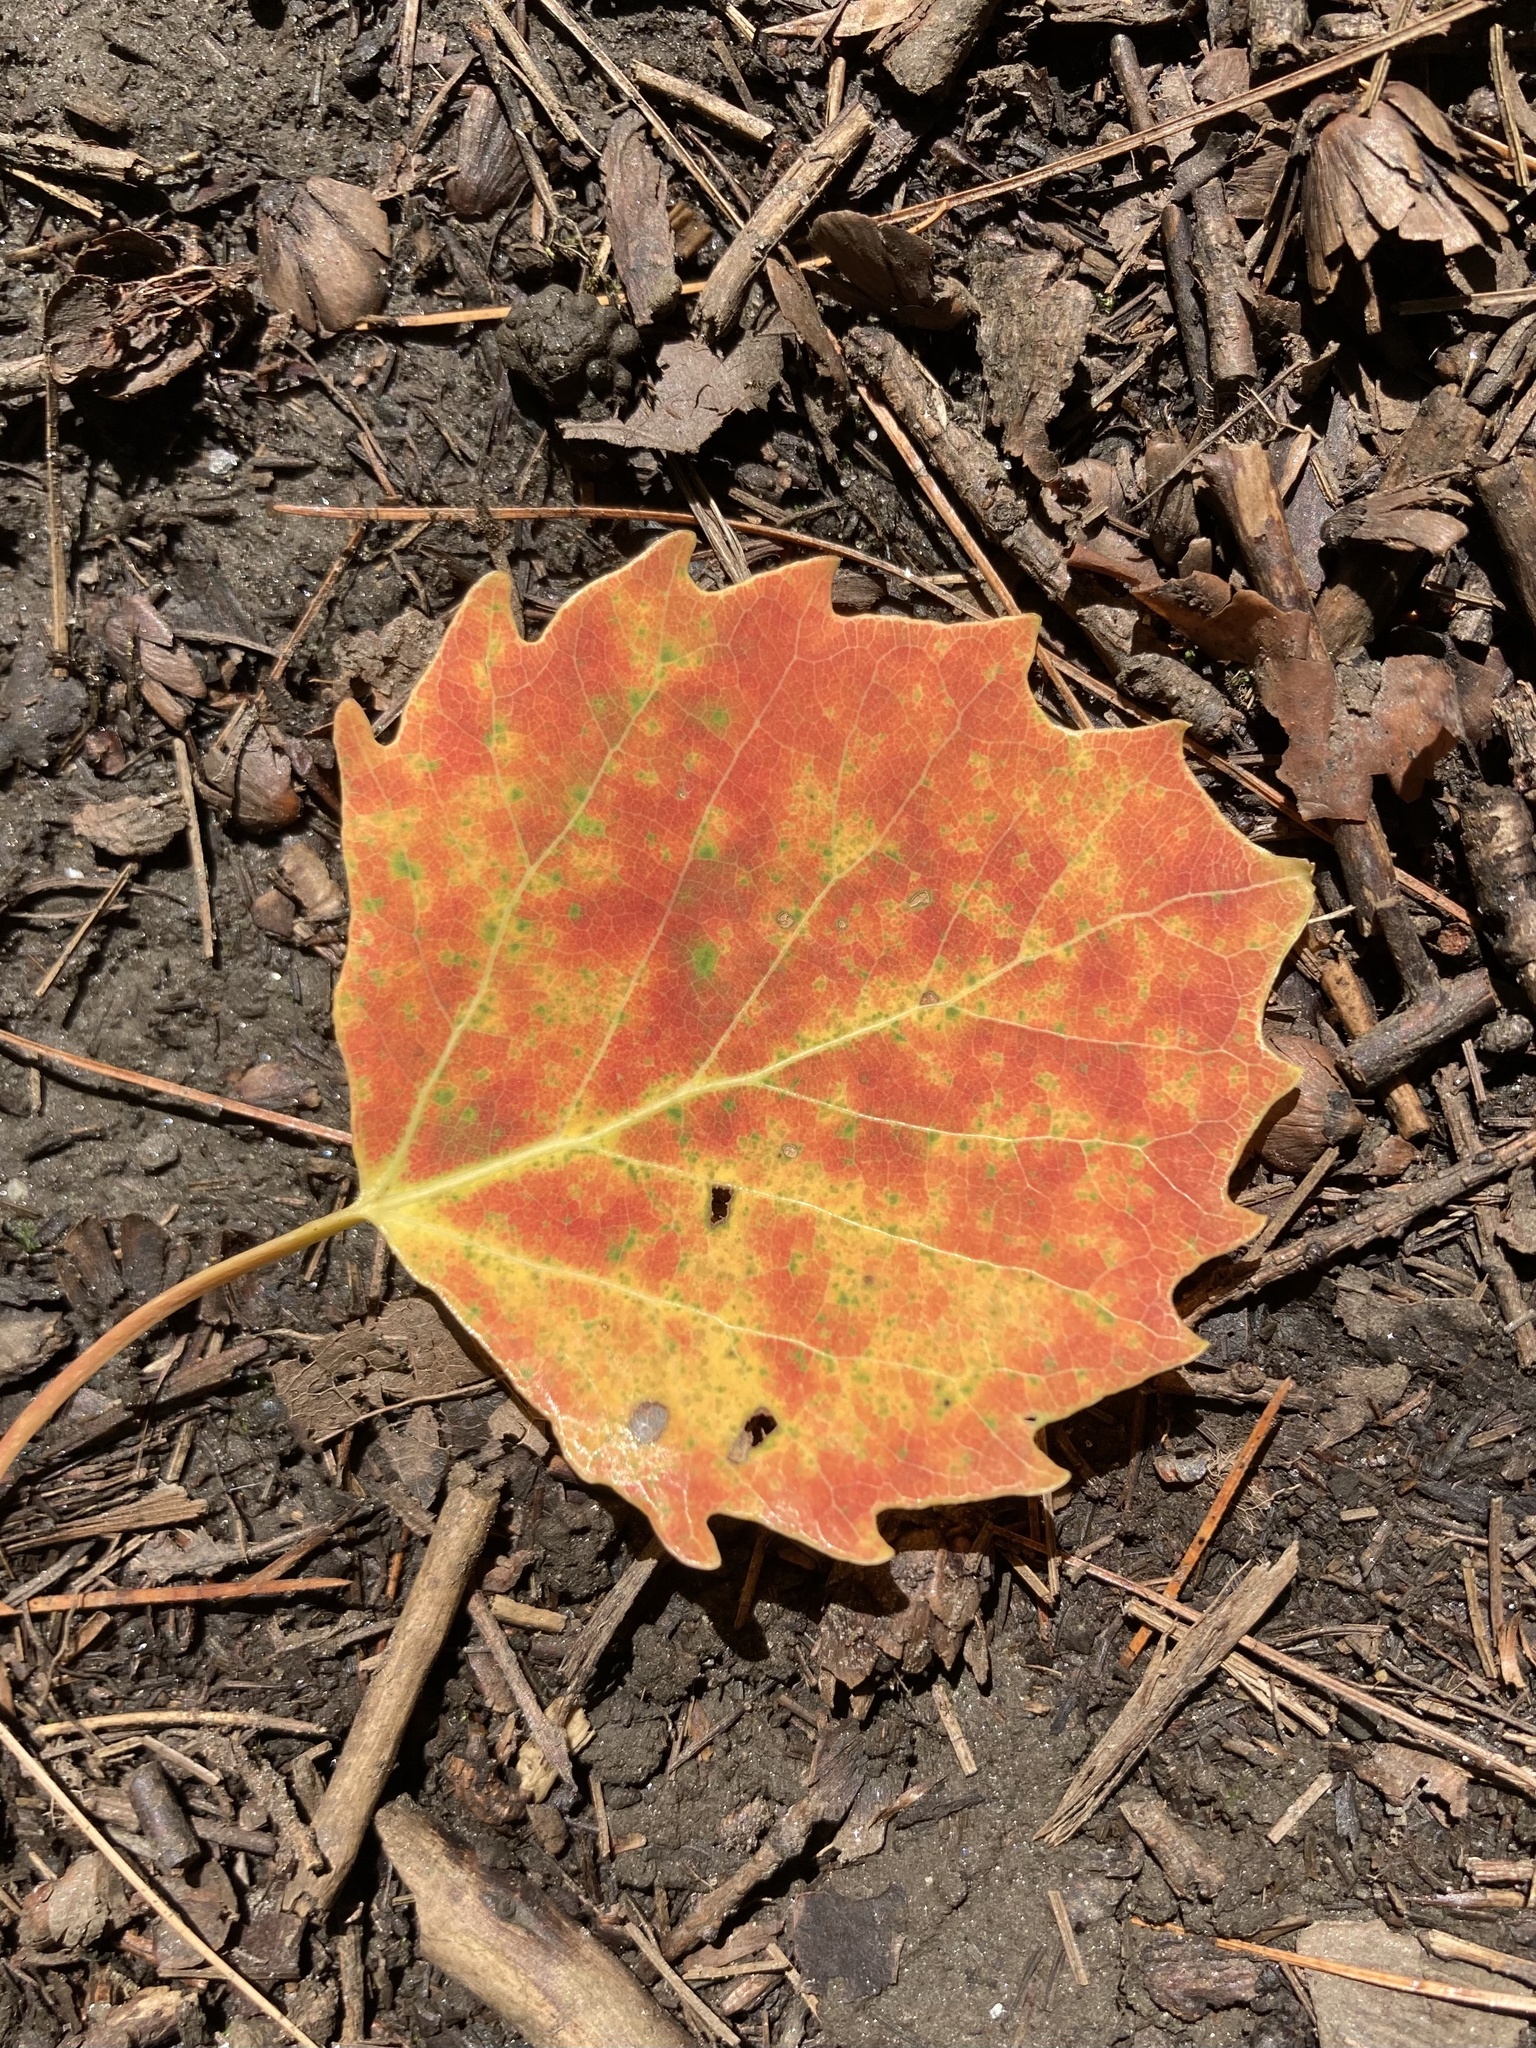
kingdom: Plantae
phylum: Tracheophyta
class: Magnoliopsida
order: Malpighiales
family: Salicaceae
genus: Populus
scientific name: Populus grandidentata
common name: Bigtooth aspen
